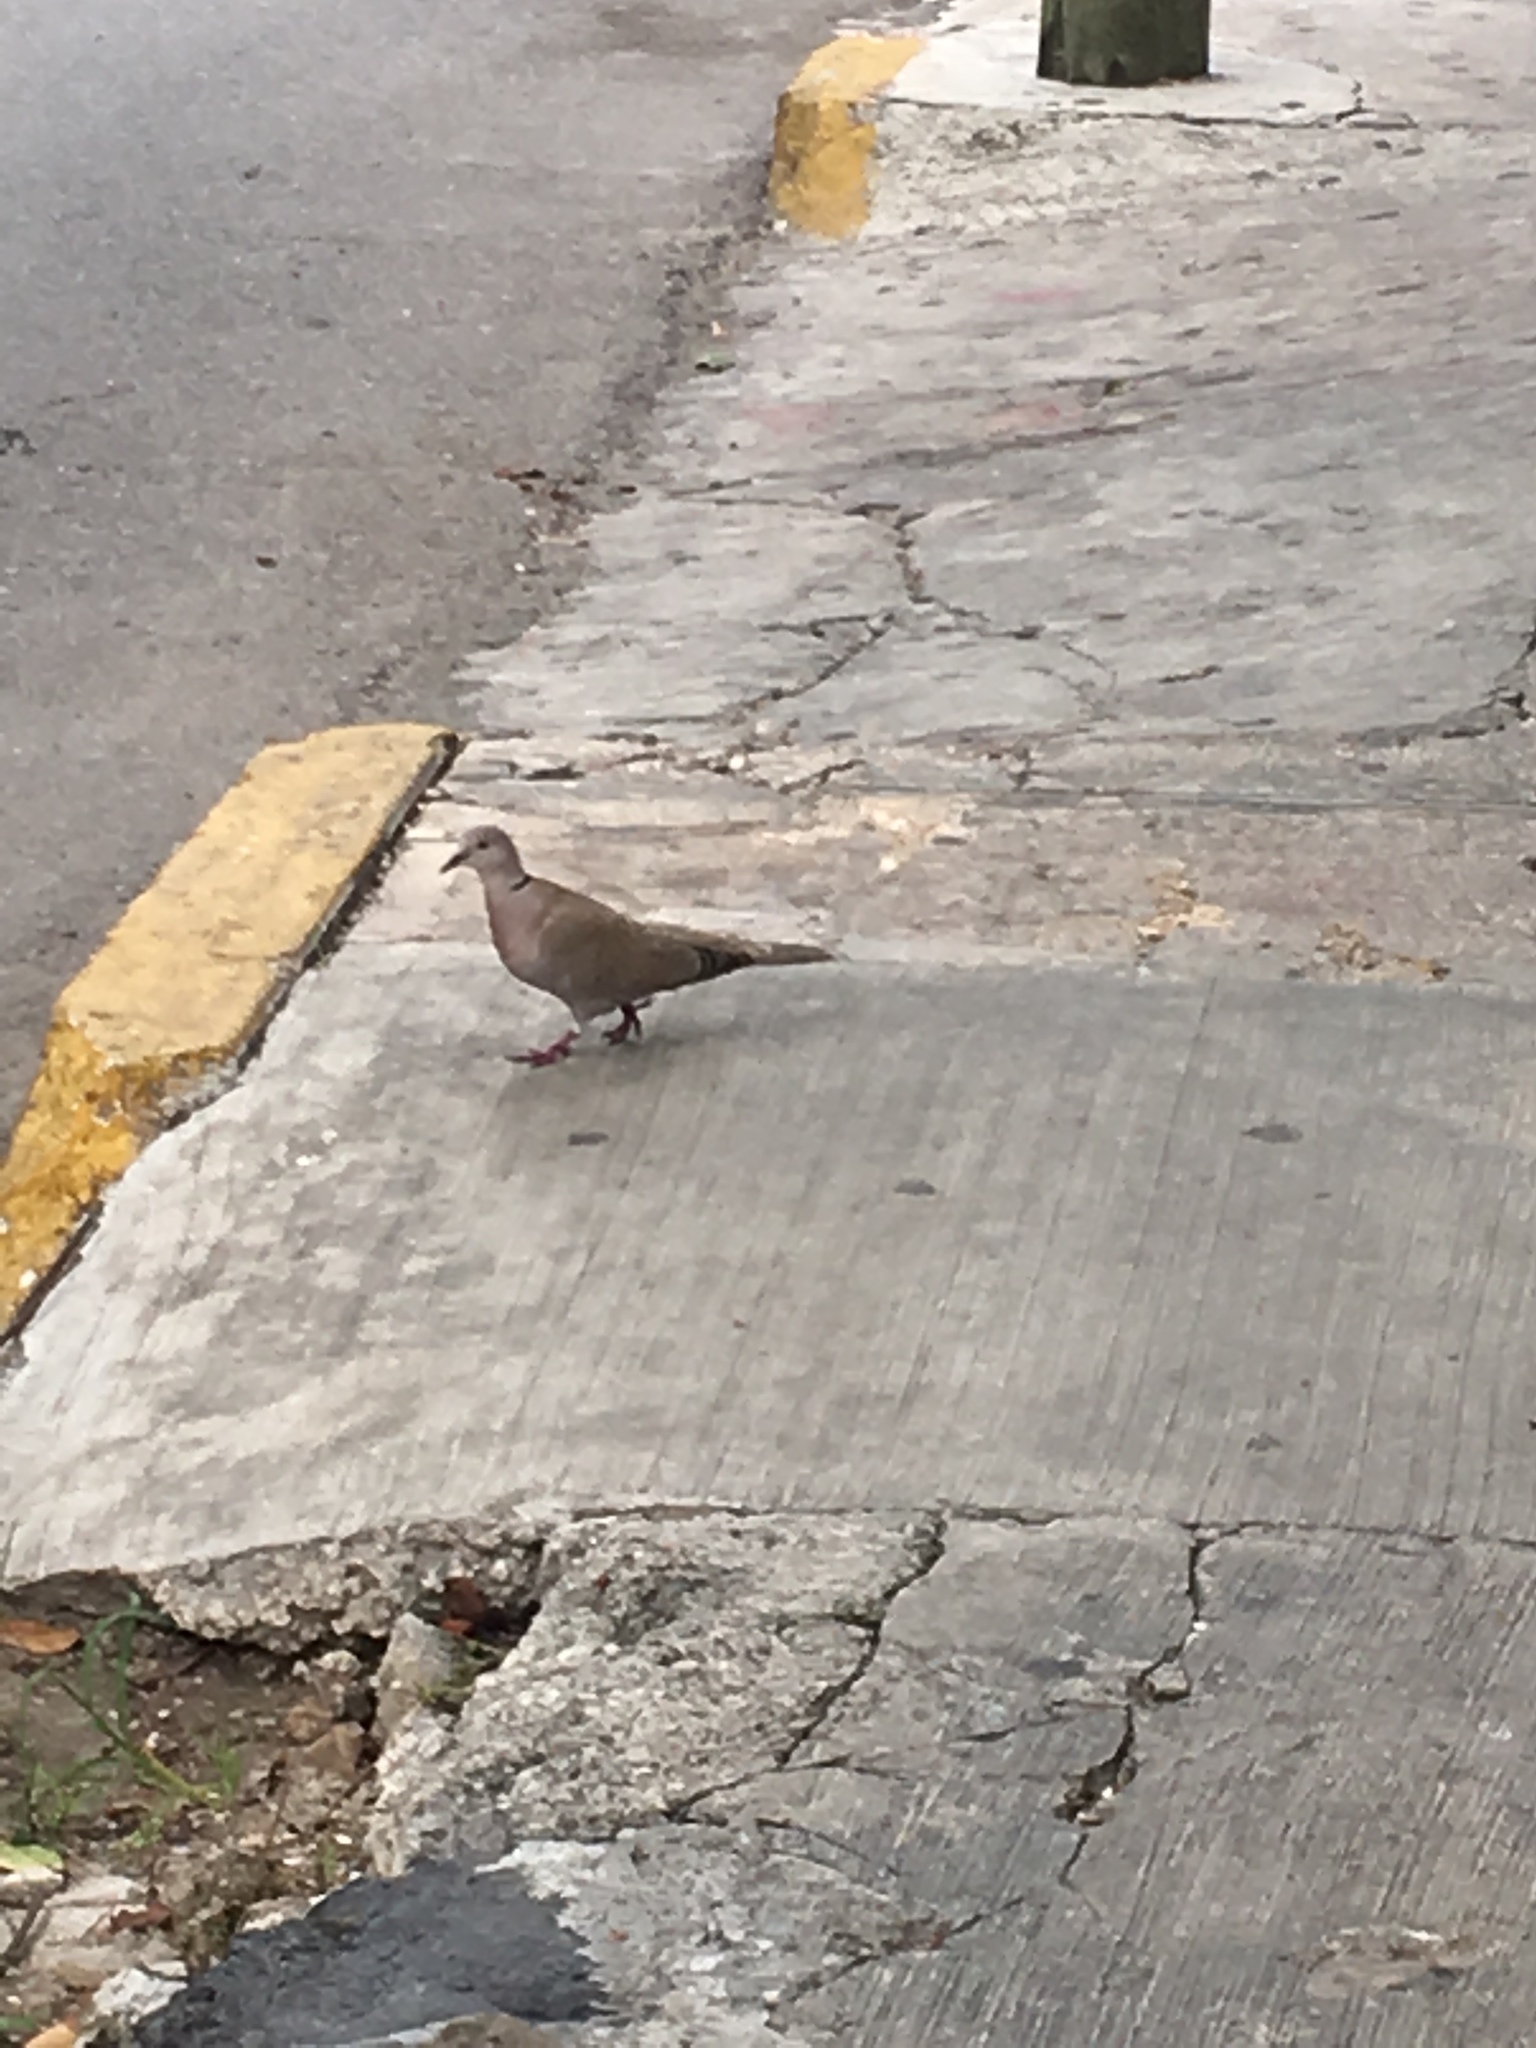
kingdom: Animalia
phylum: Chordata
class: Aves
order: Columbiformes
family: Columbidae
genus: Streptopelia
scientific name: Streptopelia decaocto
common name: Eurasian collared dove
